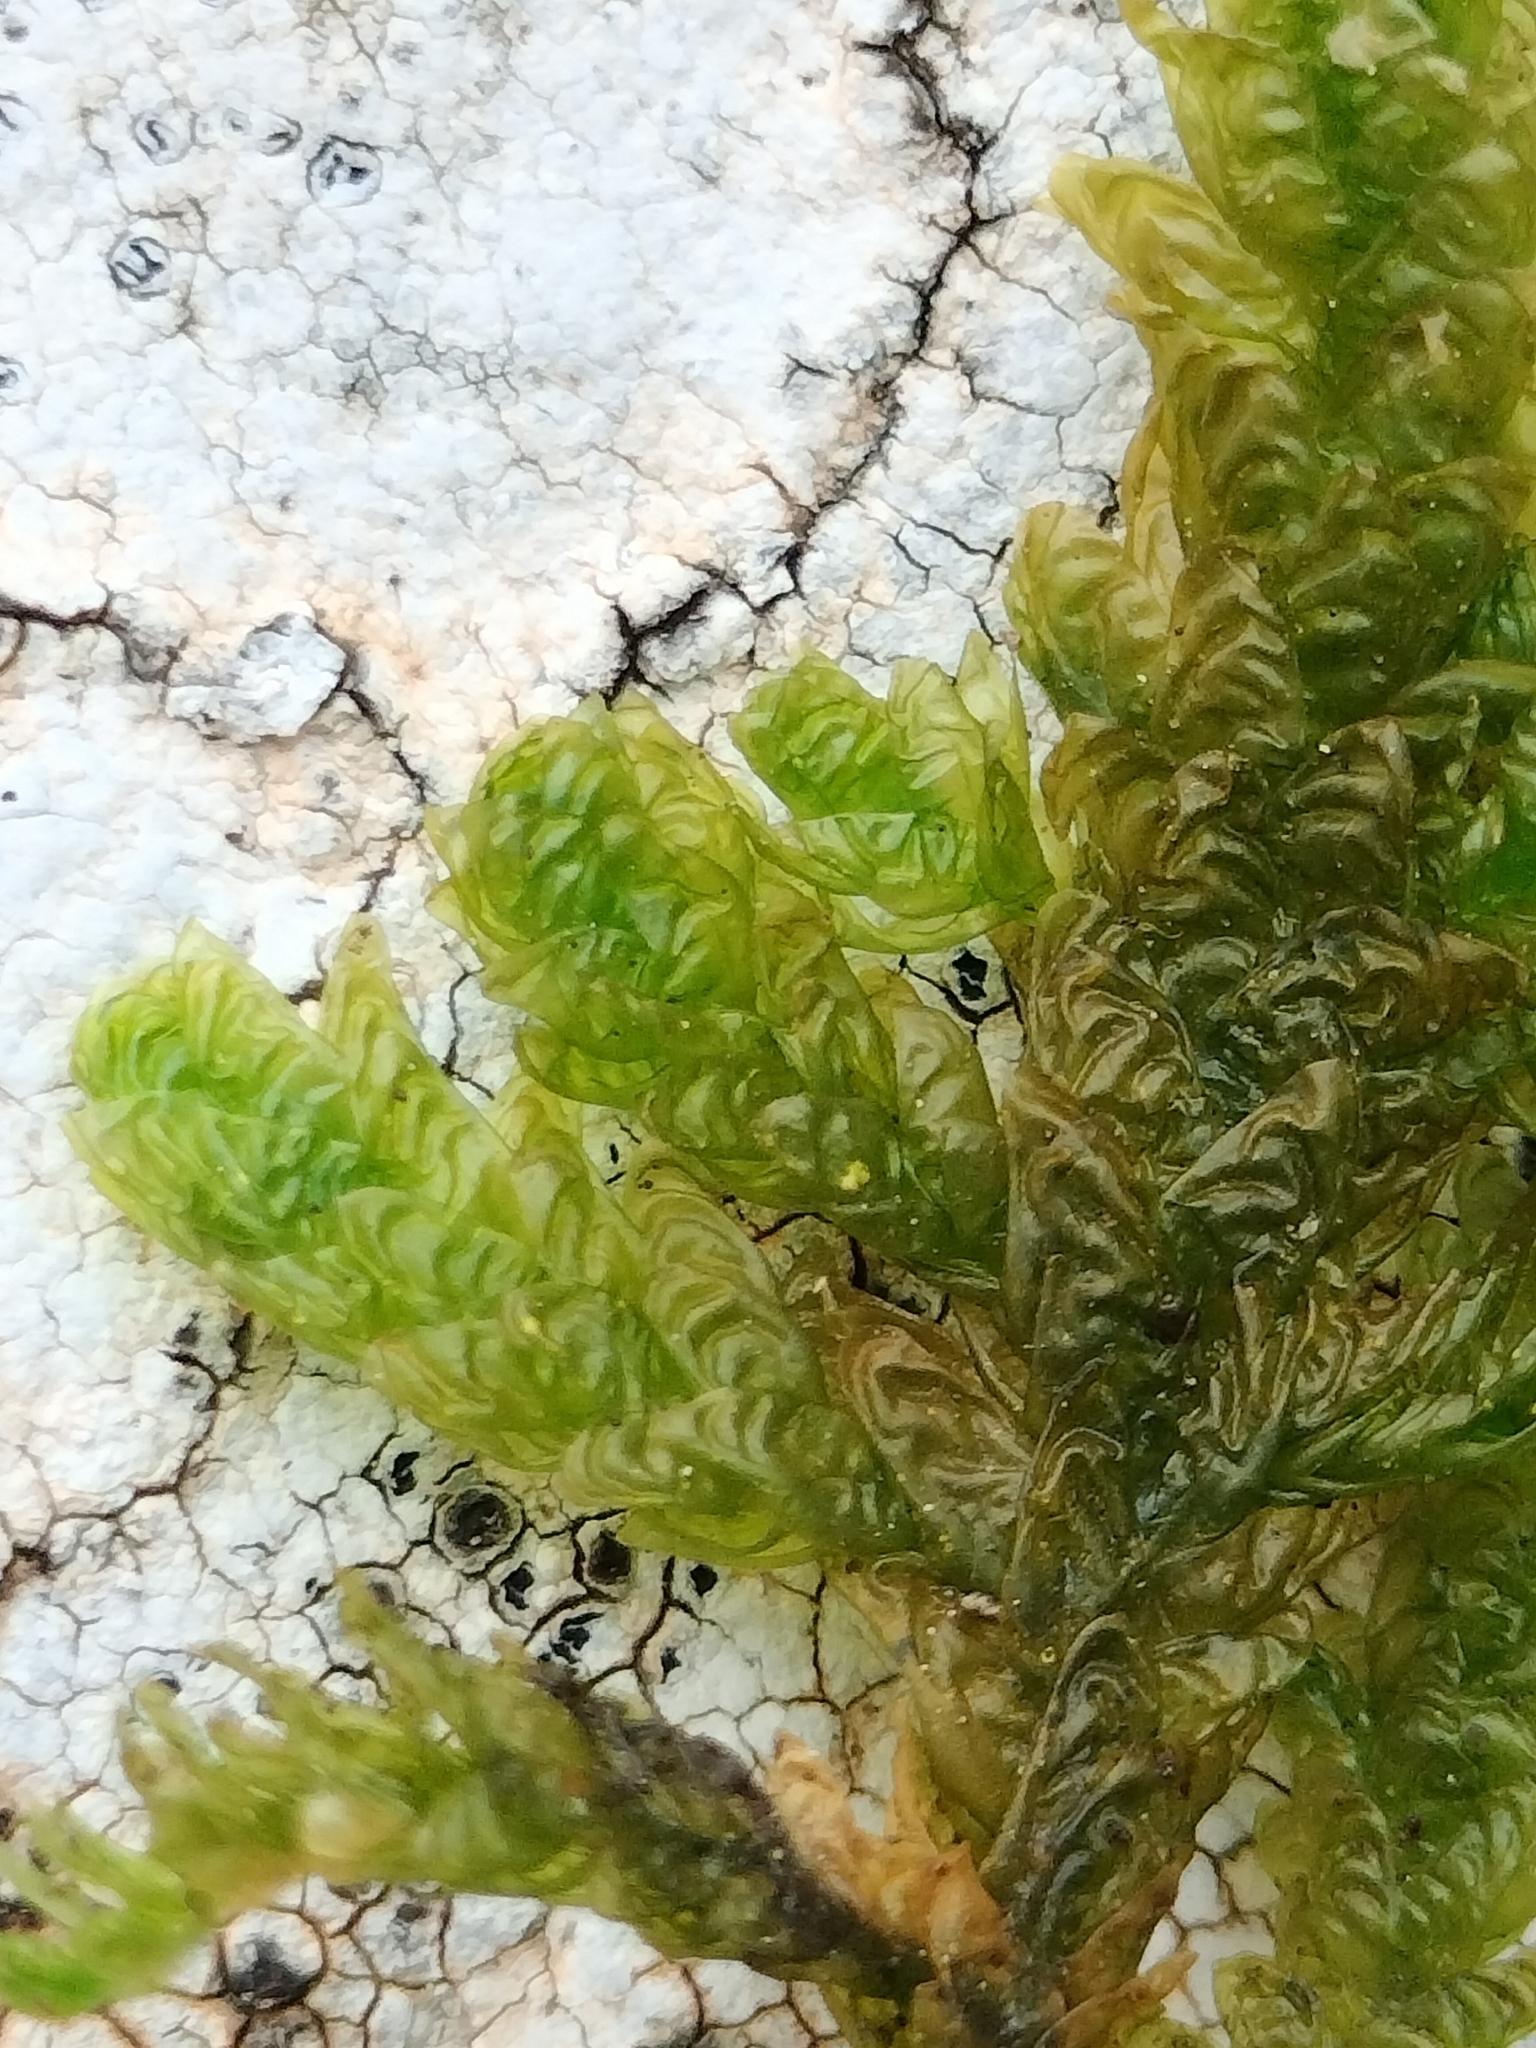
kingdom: Plantae
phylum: Bryophyta
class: Bryopsida
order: Hypnales
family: Neckeraceae
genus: Metaneckera
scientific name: Metaneckera menziesii
